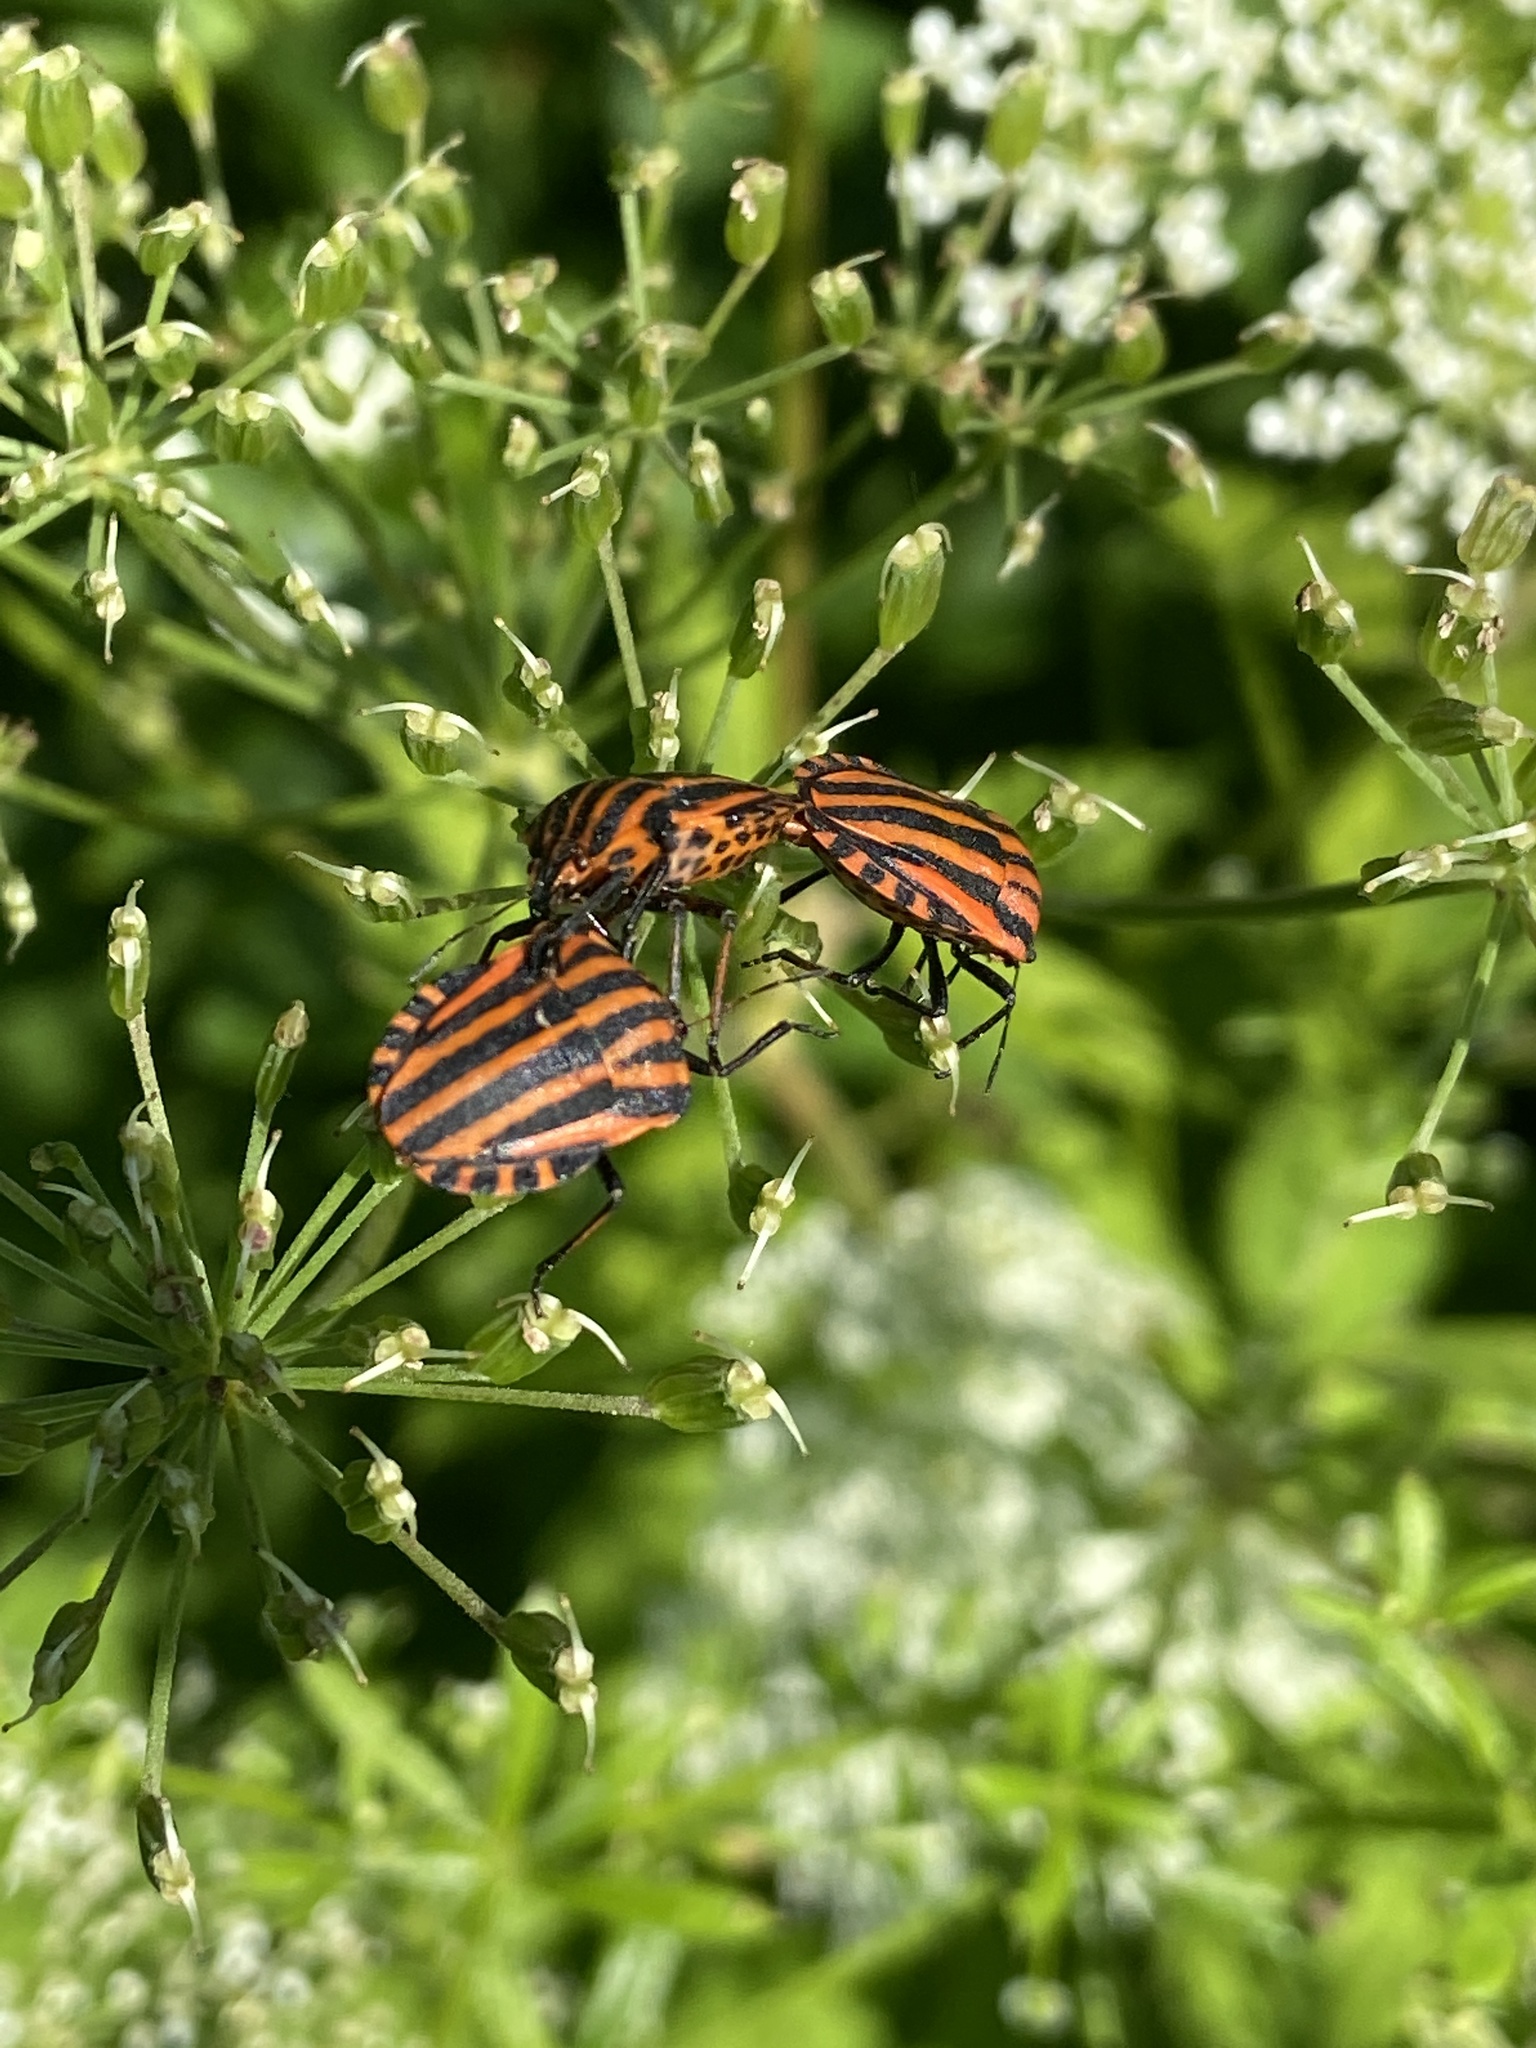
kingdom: Animalia
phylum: Arthropoda
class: Insecta
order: Hemiptera
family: Pentatomidae
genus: Graphosoma
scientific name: Graphosoma italicum
